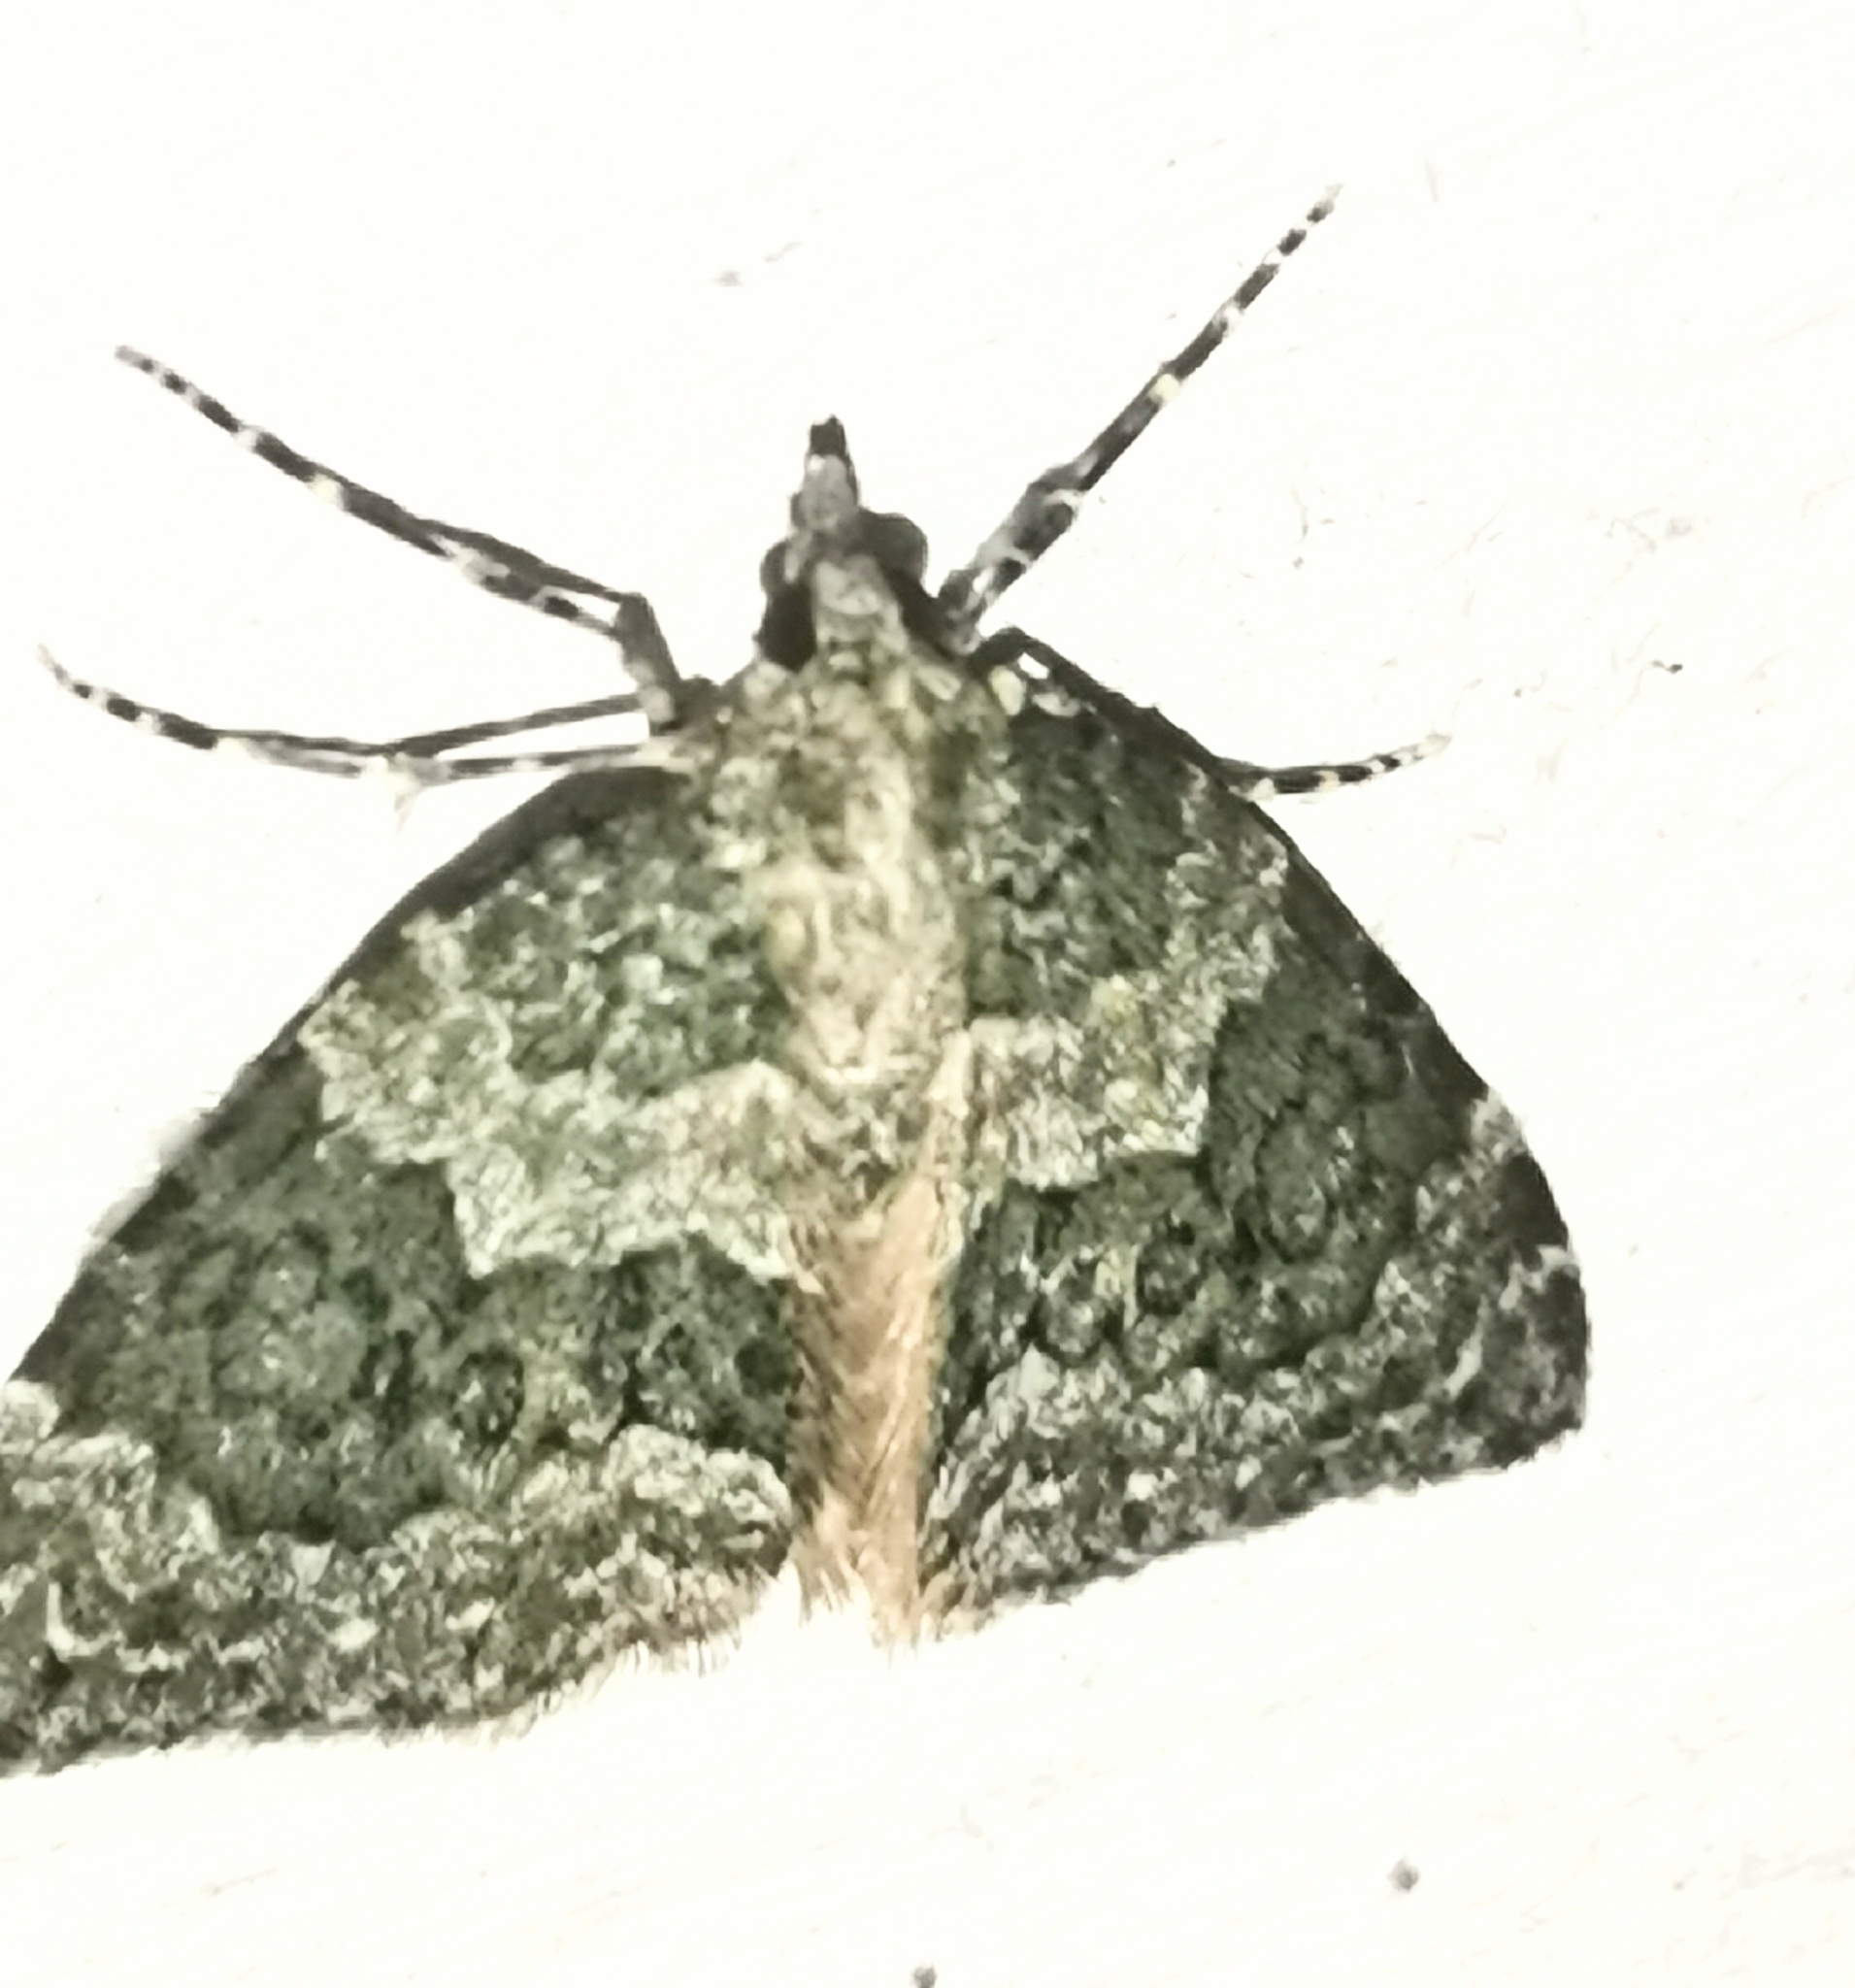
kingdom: Animalia
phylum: Arthropoda
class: Insecta
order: Lepidoptera
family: Geometridae
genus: Chloroclysta
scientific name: Chloroclysta miata
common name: Autumn green carpet
